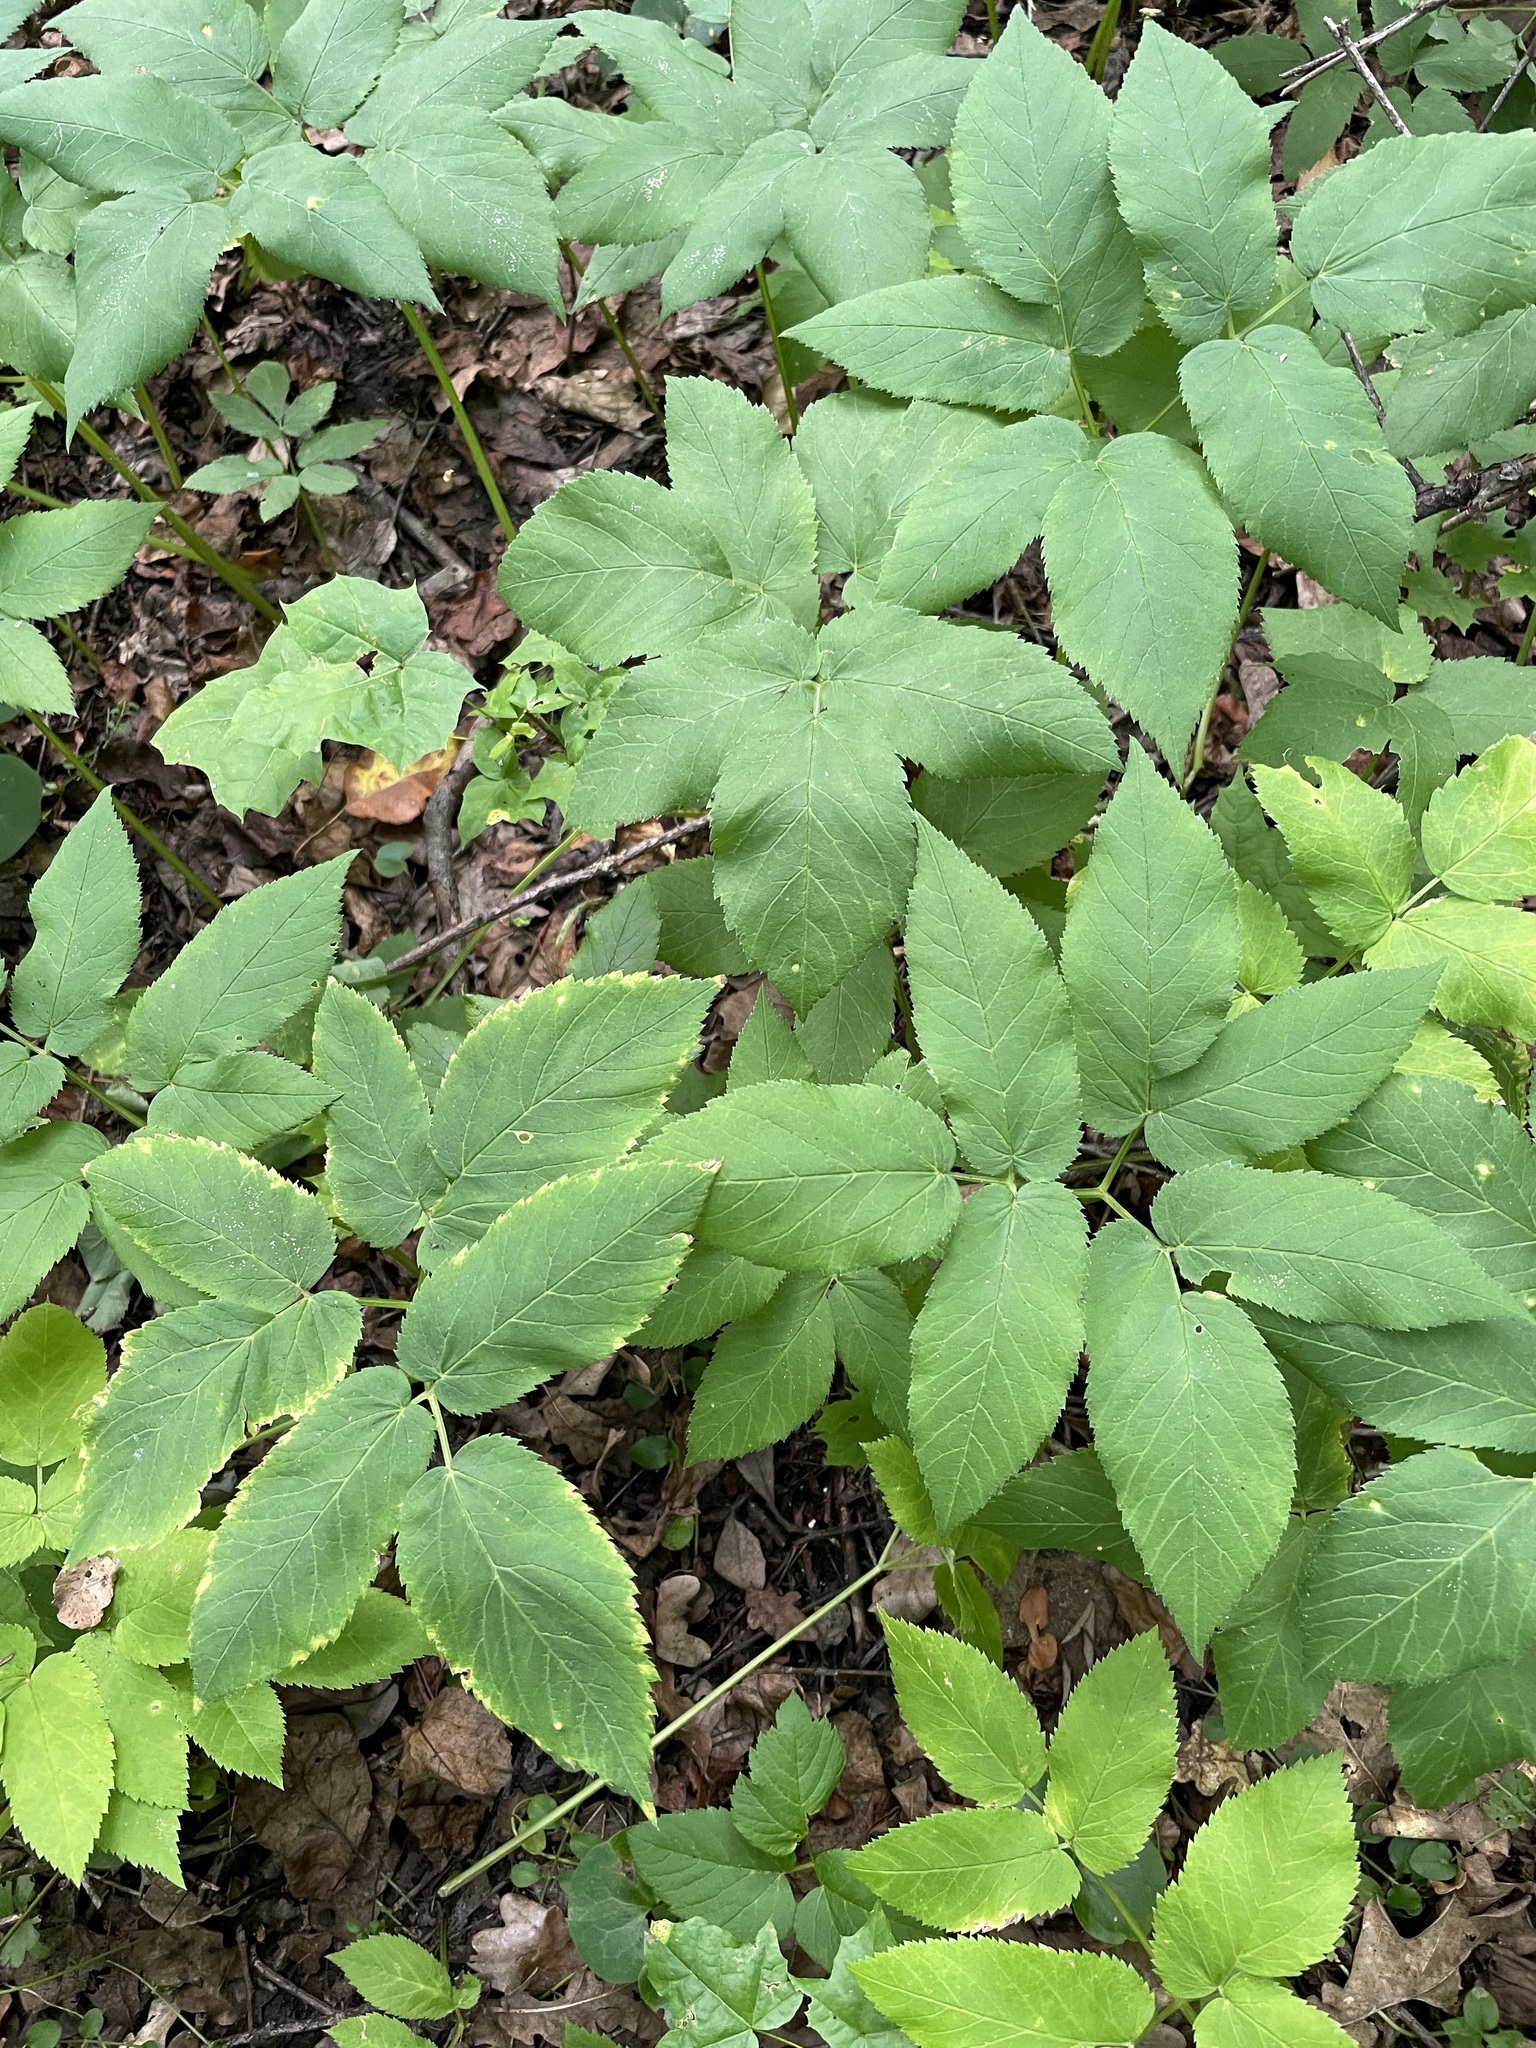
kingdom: Plantae
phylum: Tracheophyta
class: Magnoliopsida
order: Apiales
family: Apiaceae
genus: Aegopodium
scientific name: Aegopodium podagraria
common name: Ground-elder
